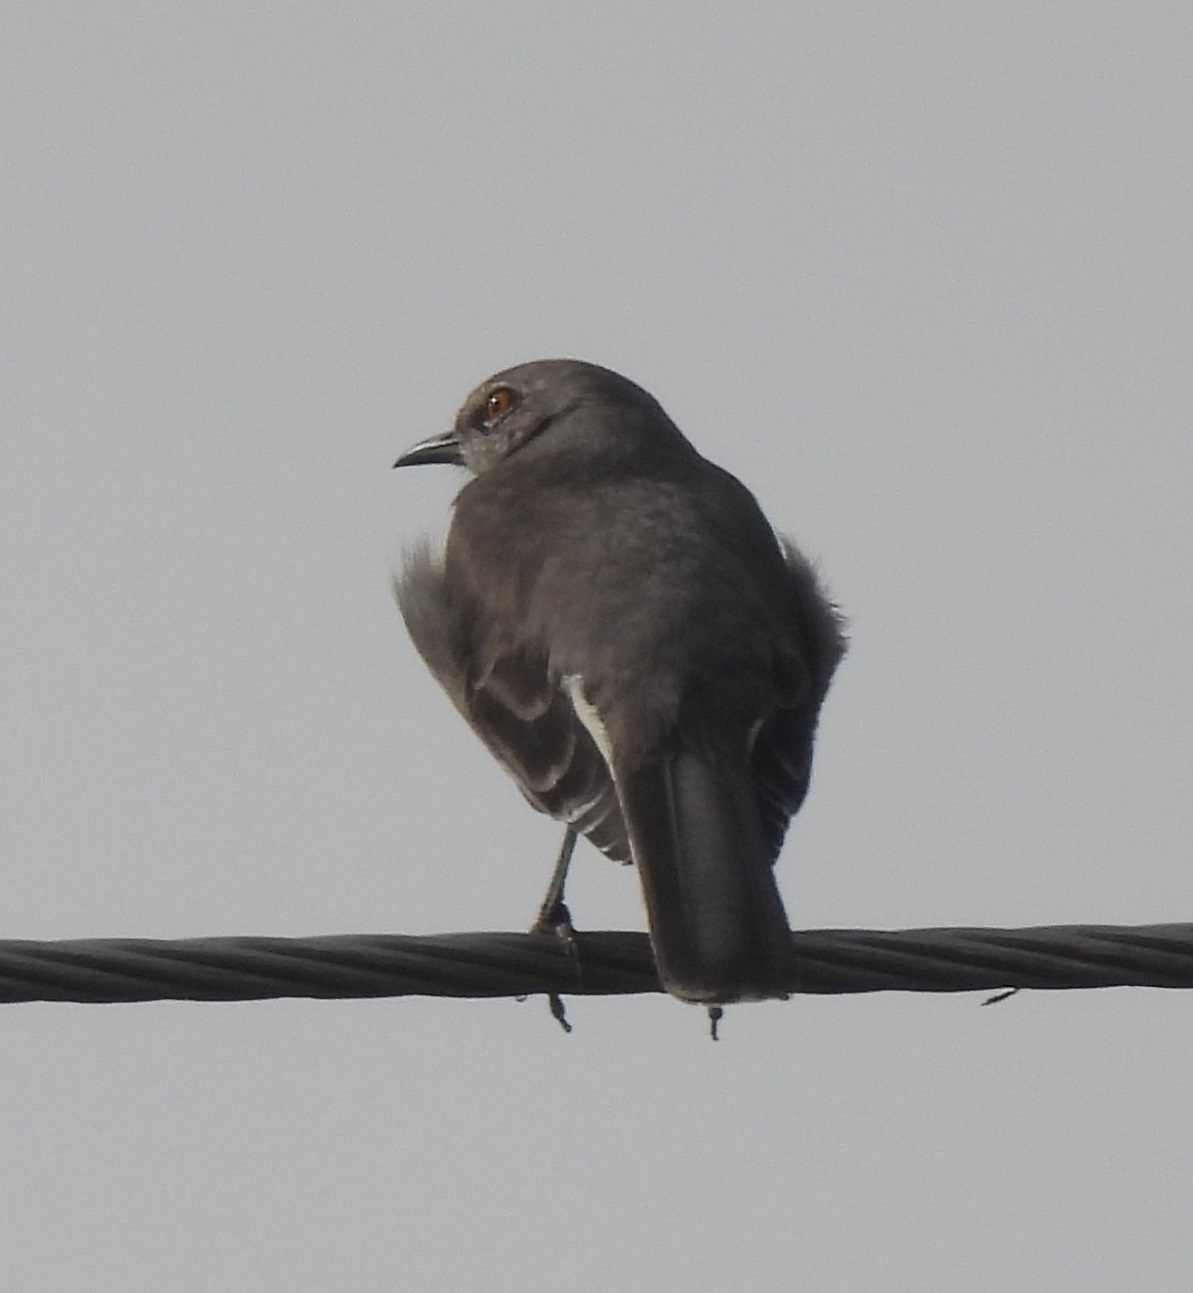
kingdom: Animalia
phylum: Chordata
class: Aves
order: Passeriformes
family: Mimidae
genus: Mimus
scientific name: Mimus polyglottos
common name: Northern mockingbird
